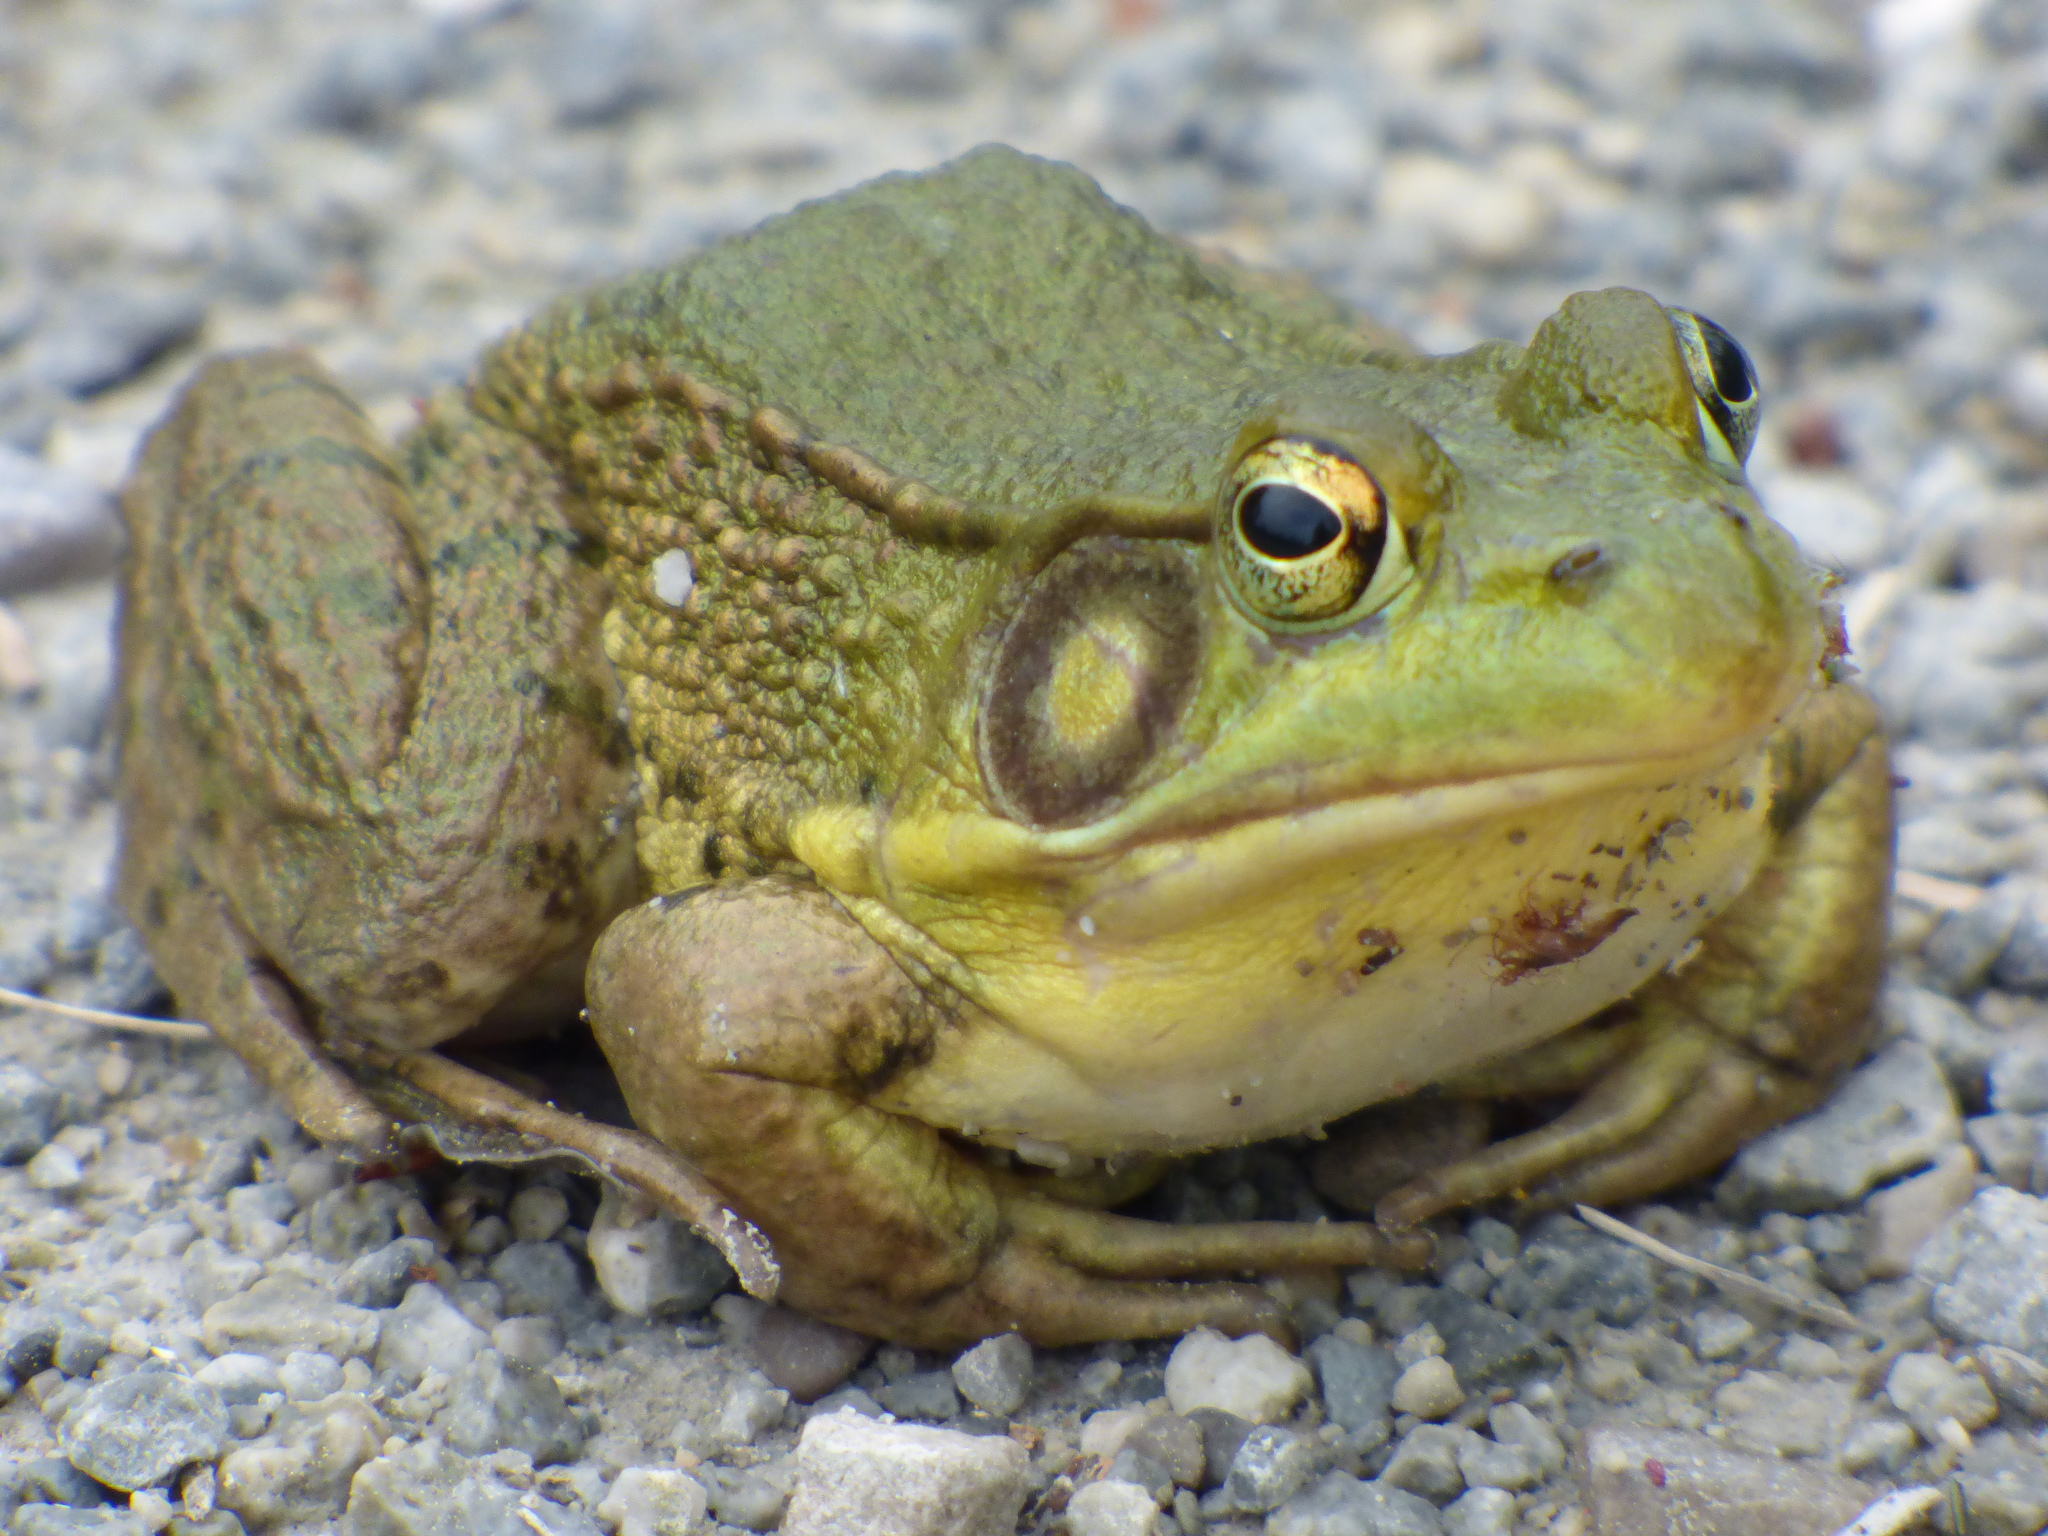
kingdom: Animalia
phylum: Chordata
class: Amphibia
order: Anura
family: Ranidae
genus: Lithobates
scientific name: Lithobates clamitans
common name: Green frog
